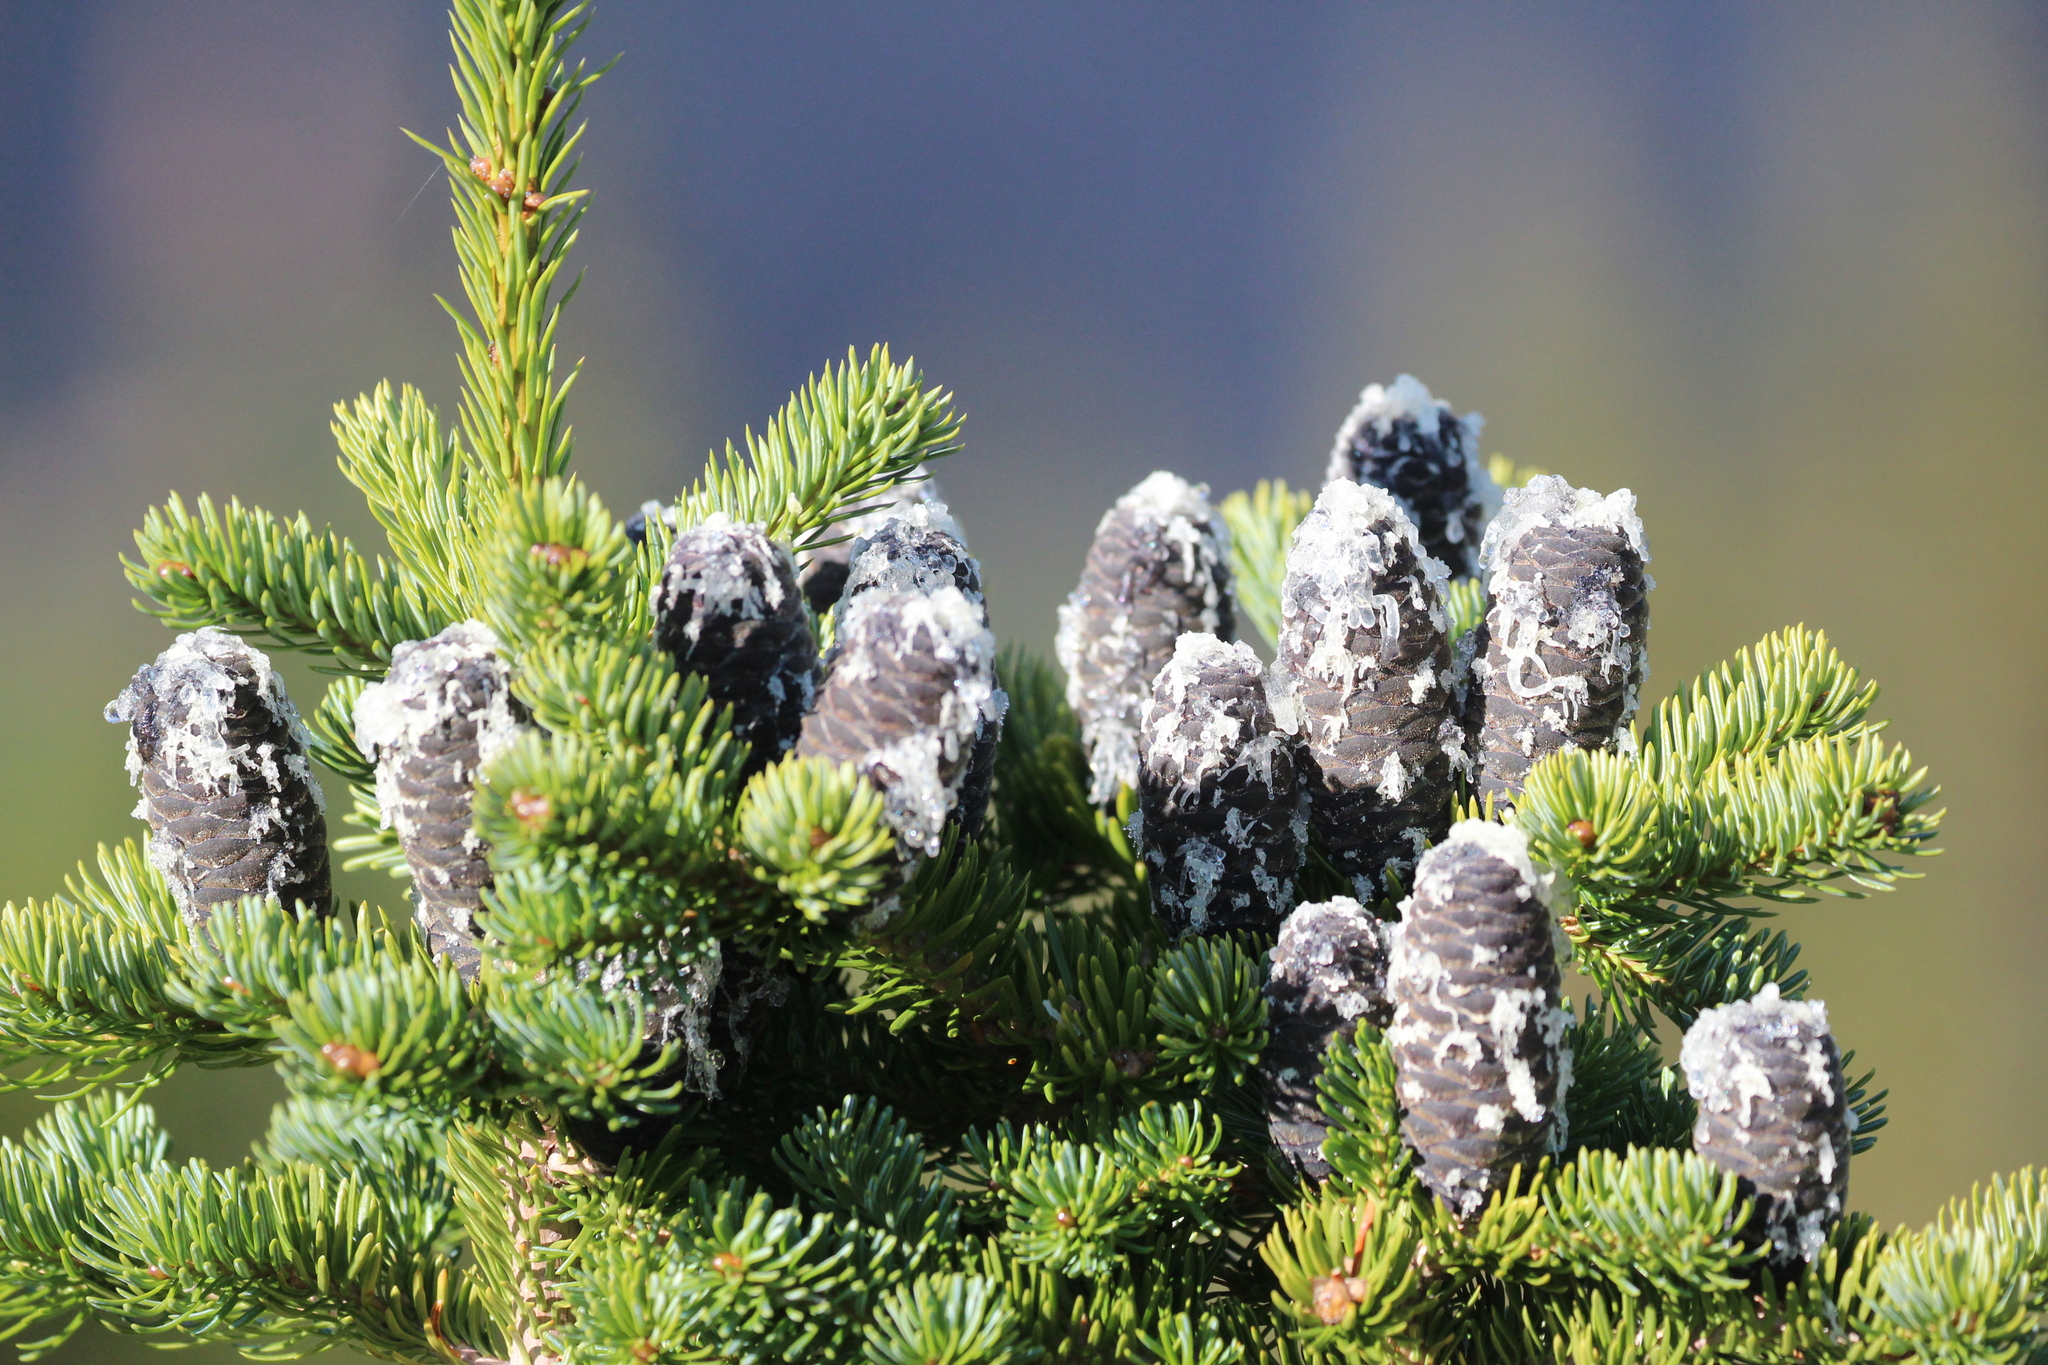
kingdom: Plantae
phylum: Tracheophyta
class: Pinopsida
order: Pinales
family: Pinaceae
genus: Abies
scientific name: Abies lasiocarpa
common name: Subalpine fir
